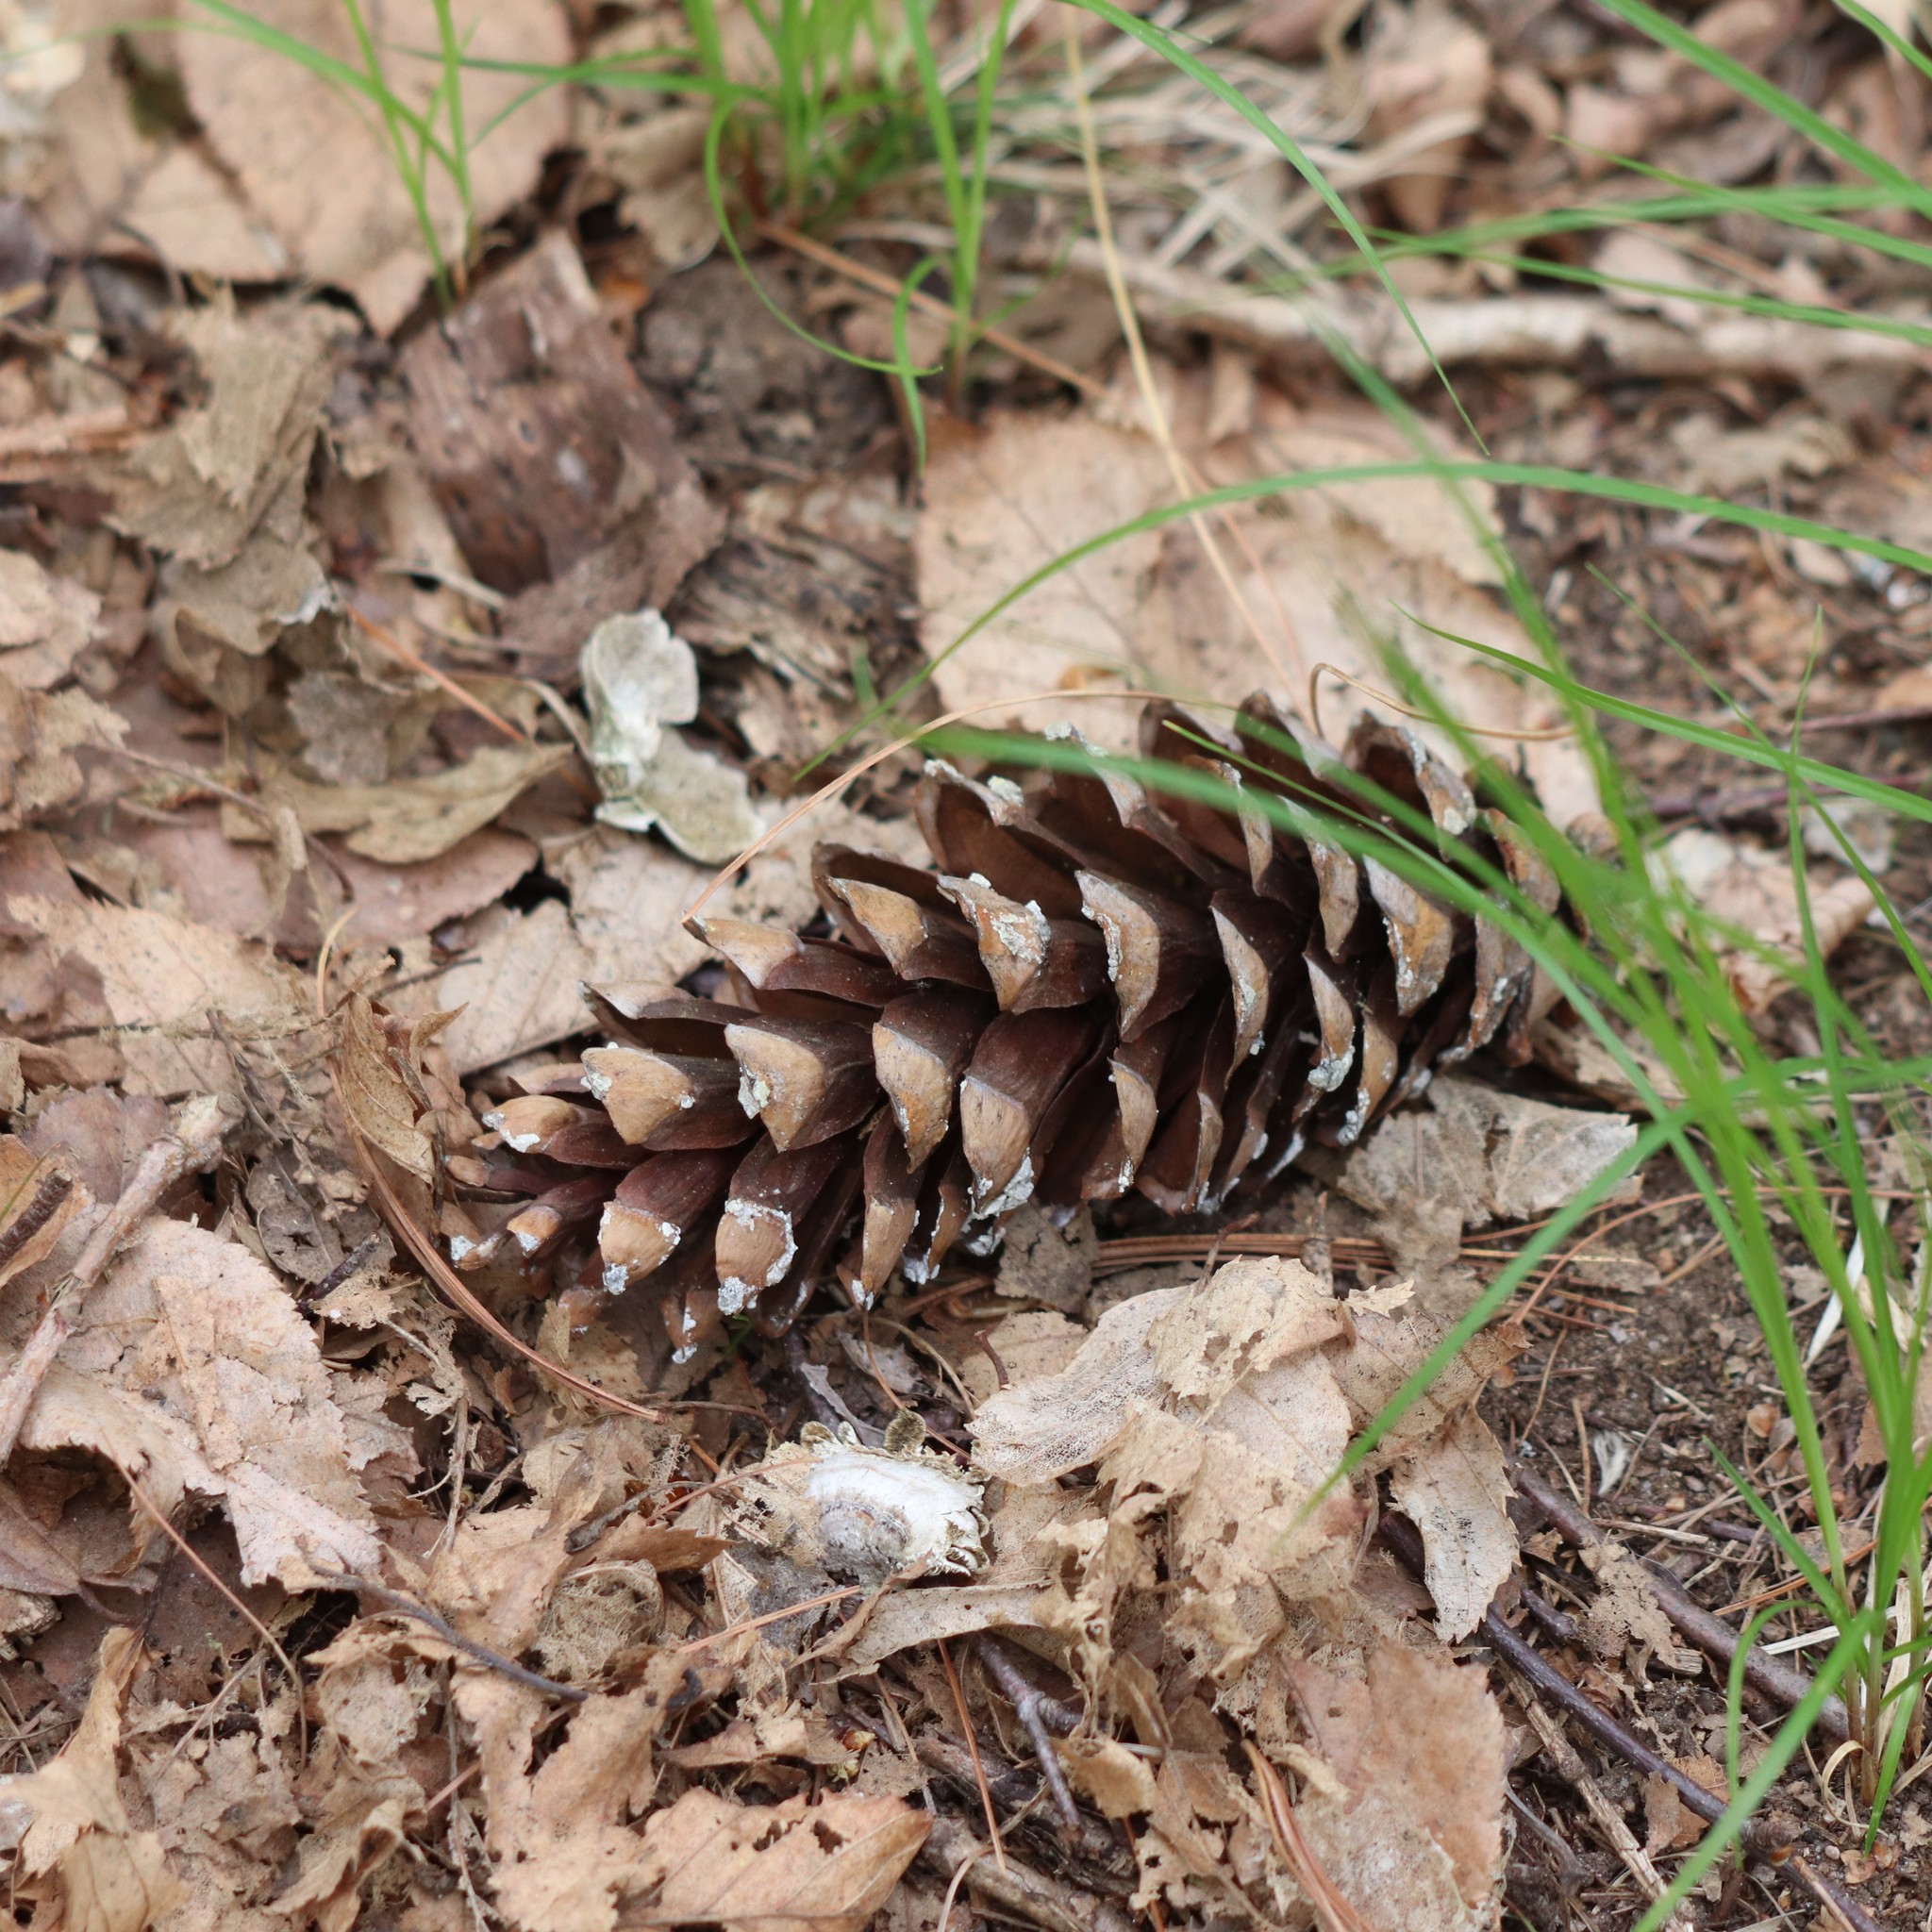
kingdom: Plantae
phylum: Tracheophyta
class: Pinopsida
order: Pinales
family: Pinaceae
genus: Pinus
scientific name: Pinus strobus
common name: Weymouth pine
